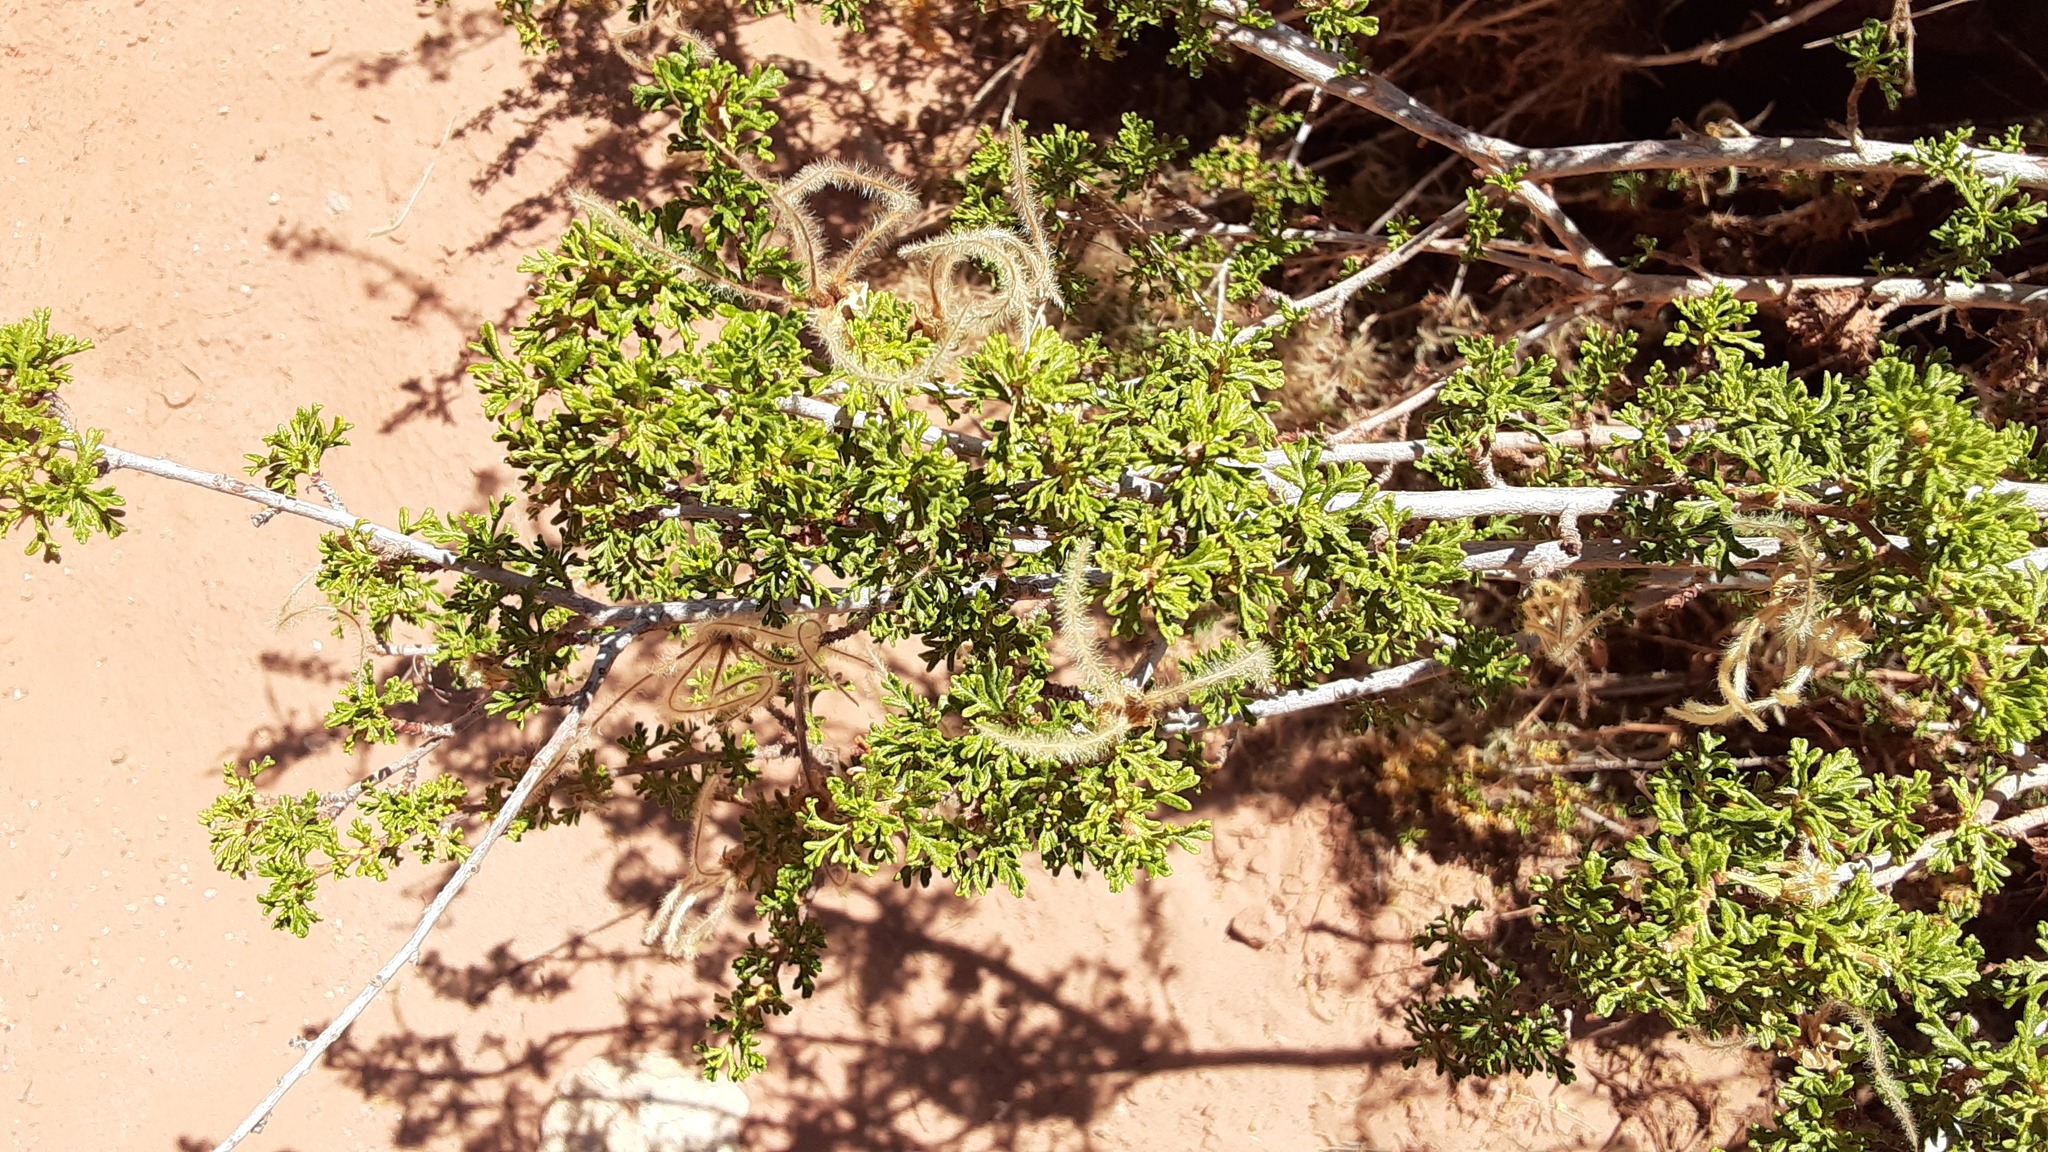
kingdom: Plantae
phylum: Tracheophyta
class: Magnoliopsida
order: Rosales
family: Rosaceae
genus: Purshia
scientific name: Purshia stansburiana
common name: Stansbury's cliffrose
